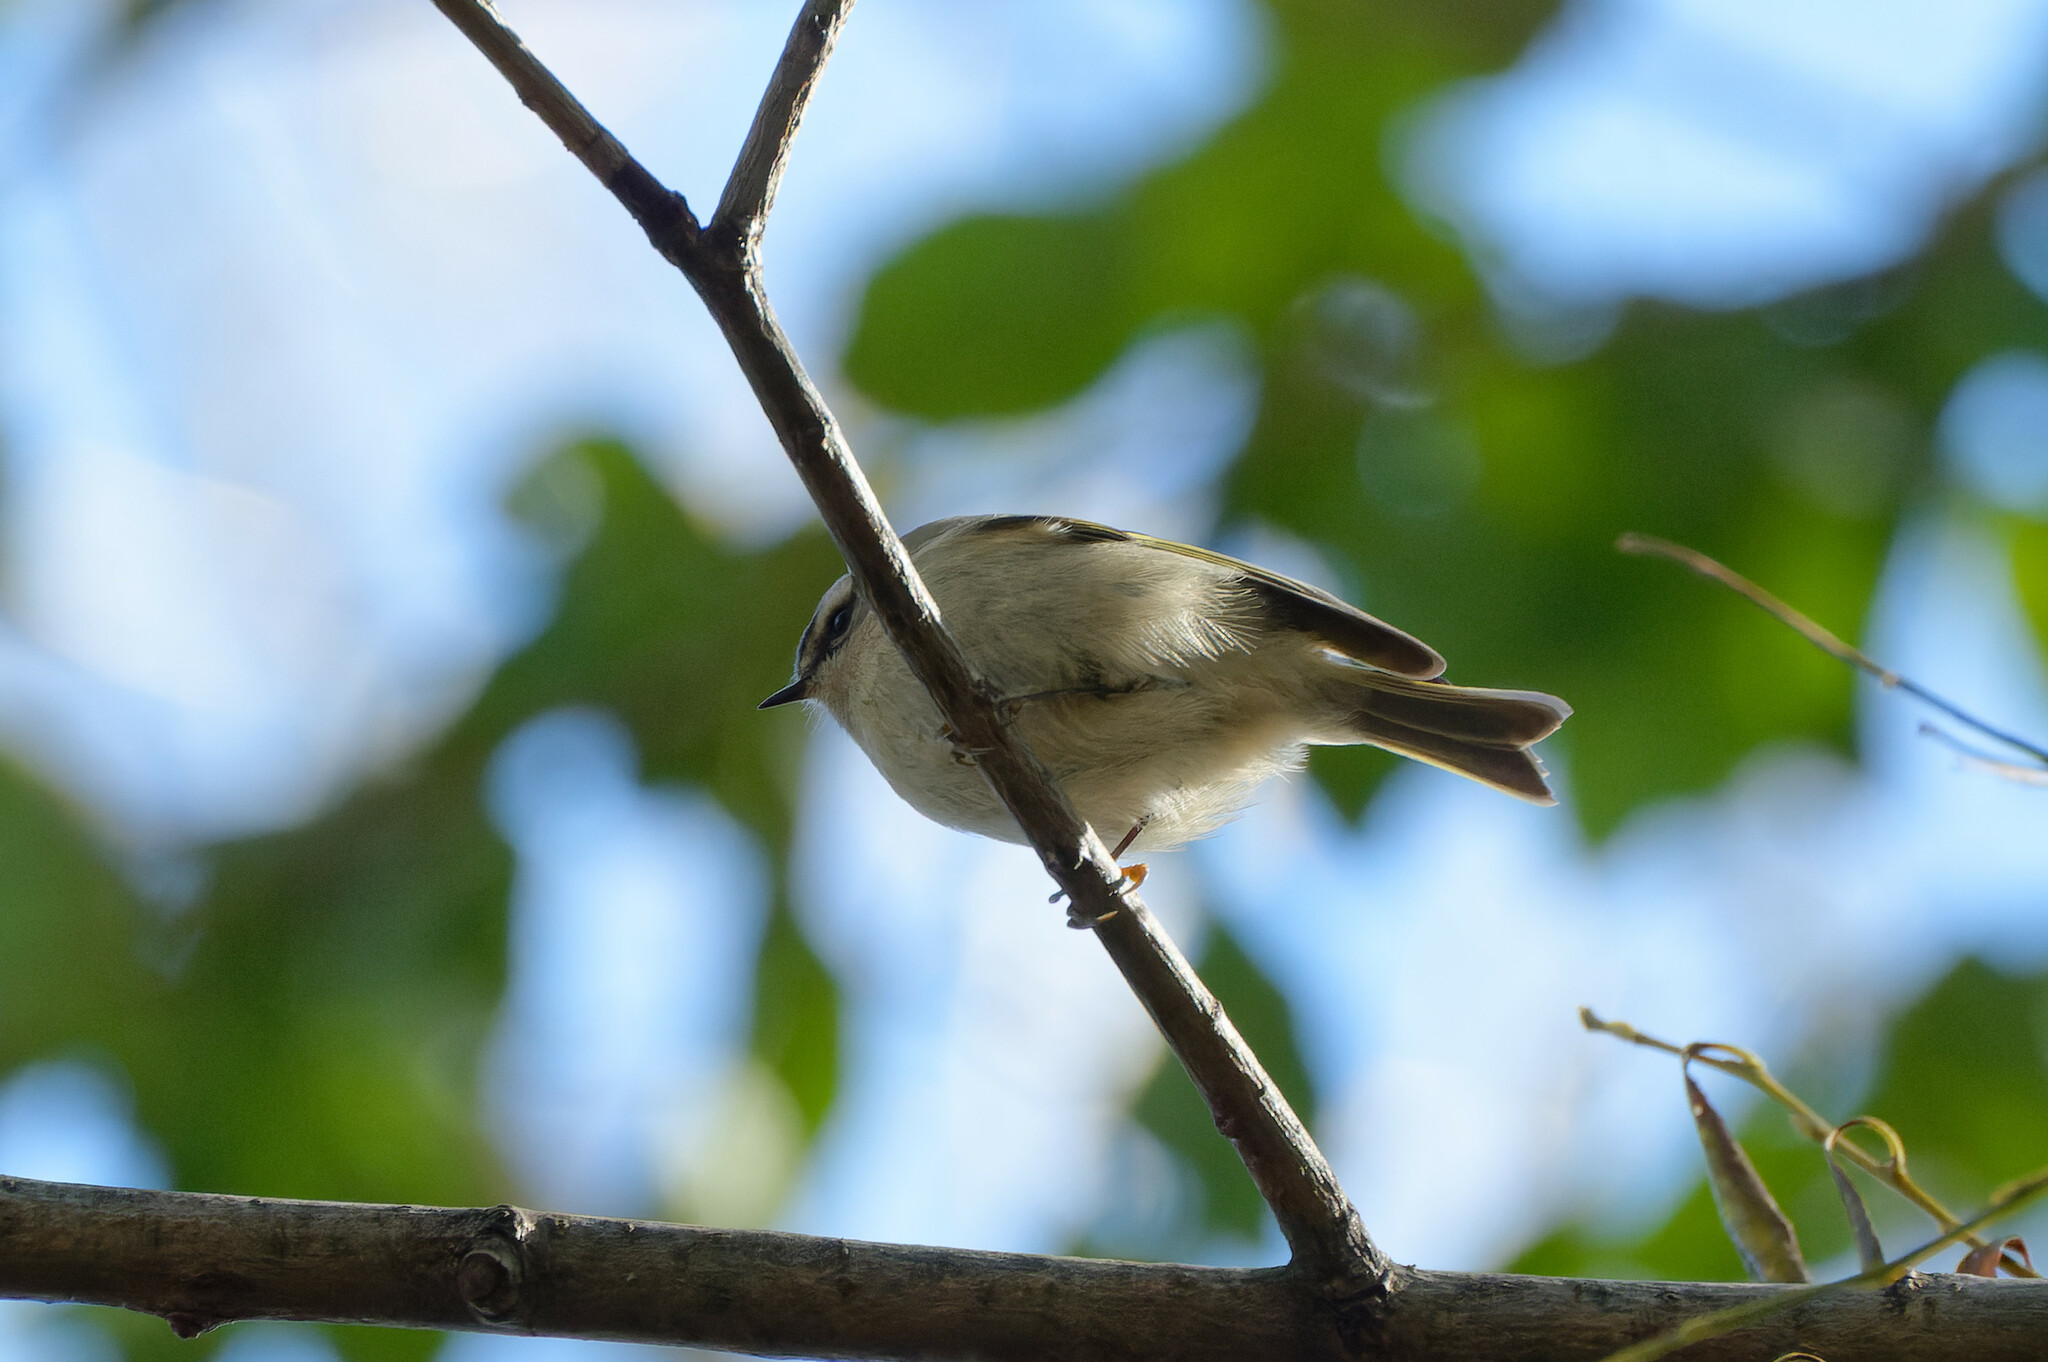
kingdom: Animalia
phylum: Chordata
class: Aves
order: Passeriformes
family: Regulidae
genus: Regulus
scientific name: Regulus satrapa
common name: Golden-crowned kinglet
